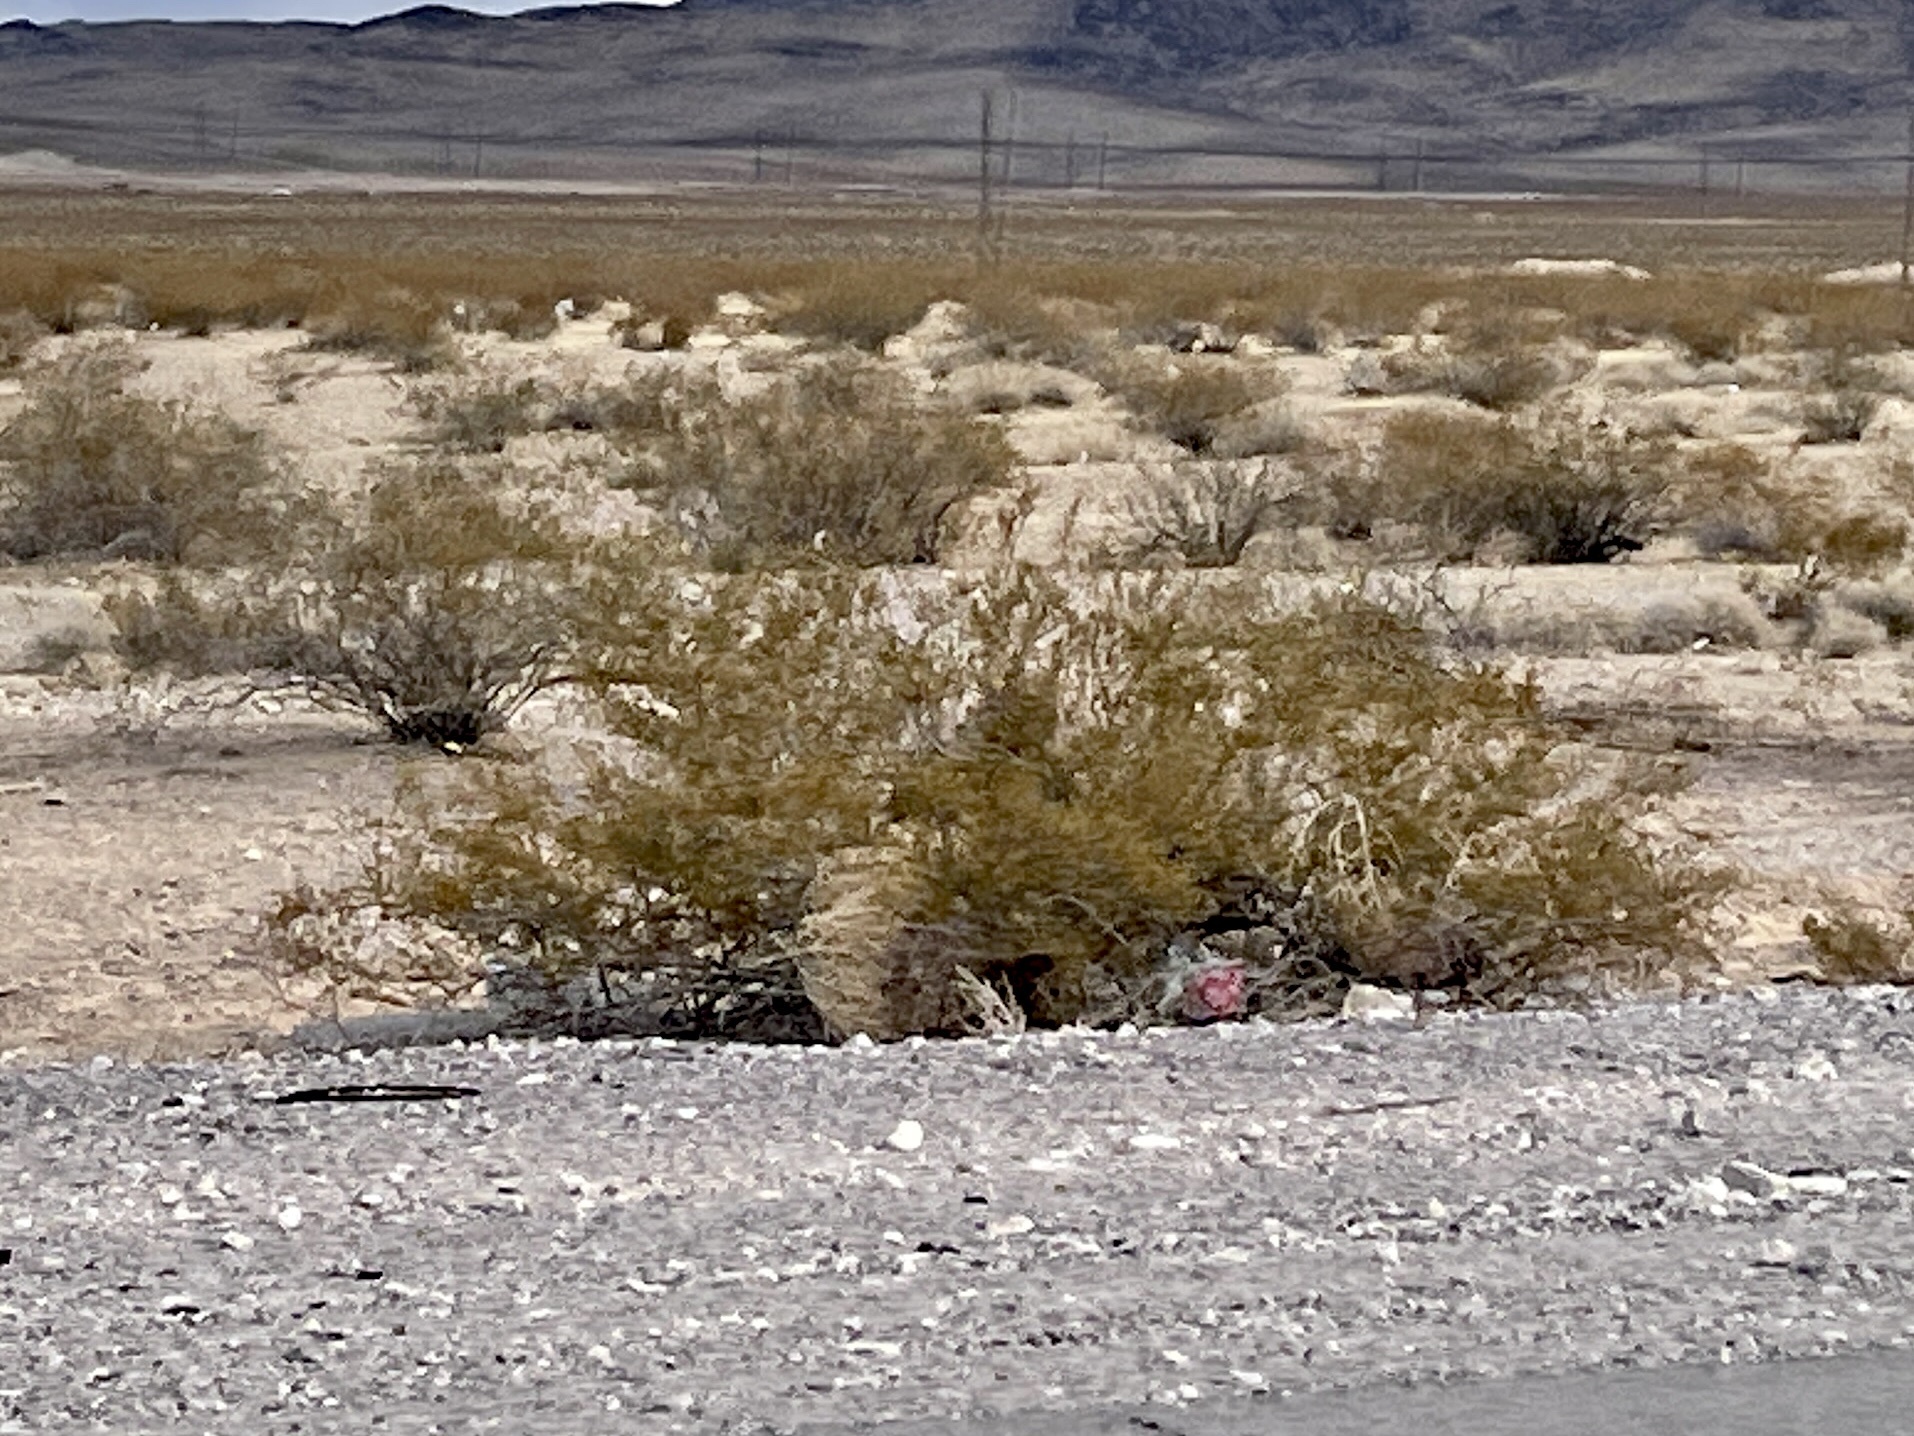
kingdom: Plantae
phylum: Tracheophyta
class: Magnoliopsida
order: Zygophyllales
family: Zygophyllaceae
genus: Larrea
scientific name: Larrea tridentata
